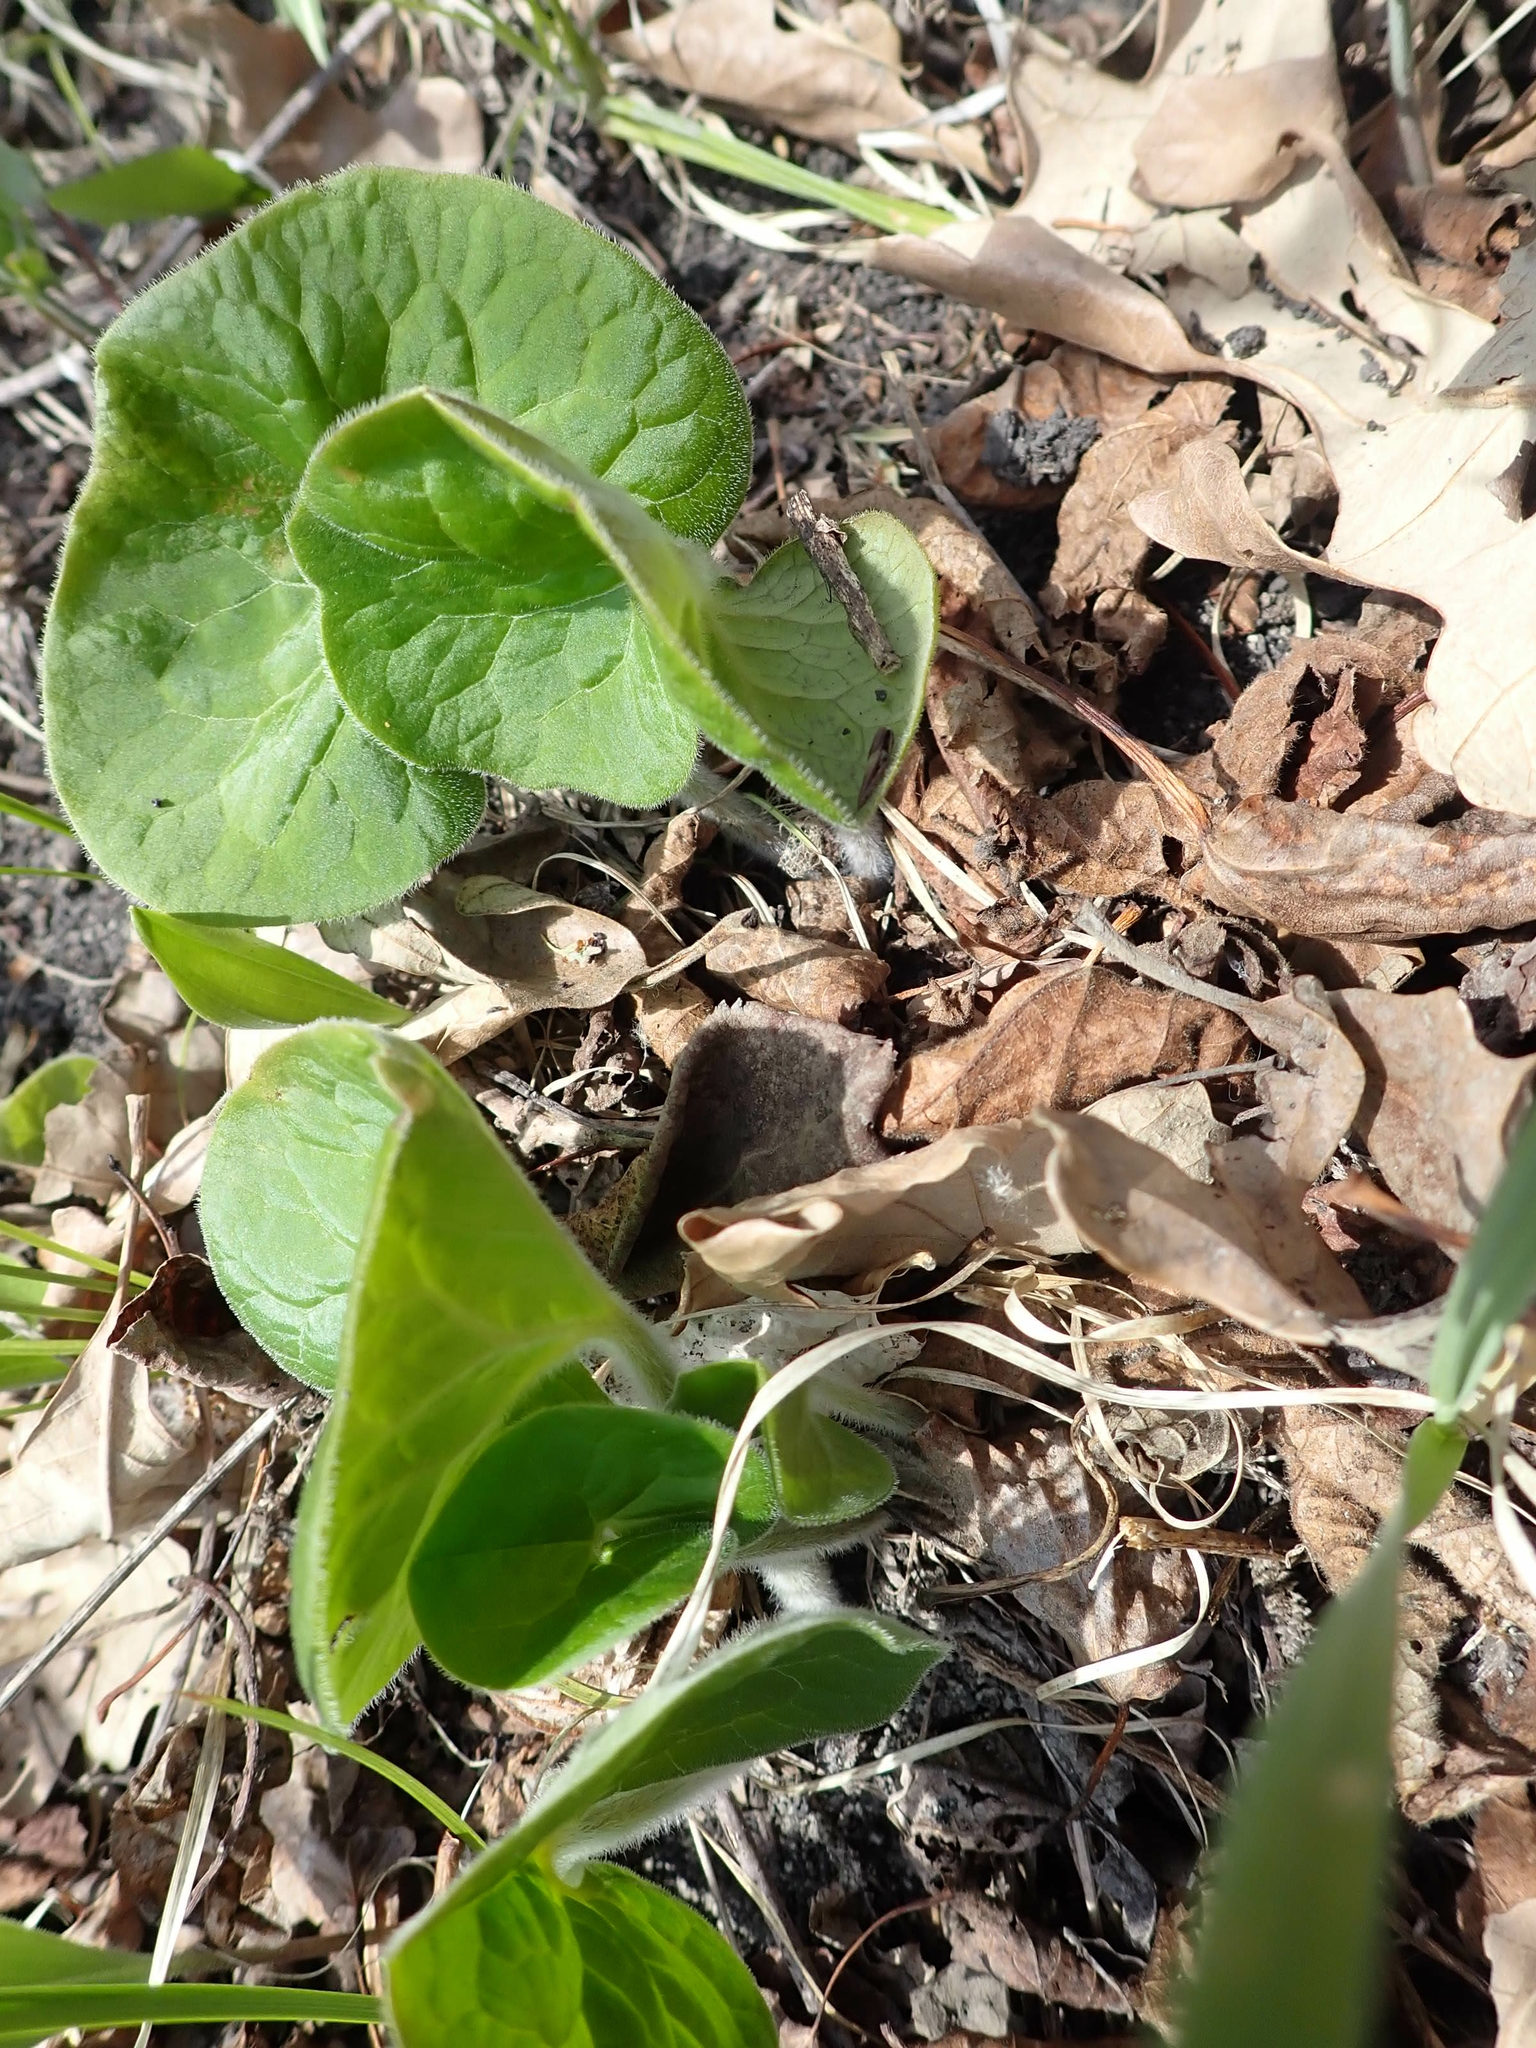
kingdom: Plantae
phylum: Tracheophyta
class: Magnoliopsida
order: Piperales
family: Aristolochiaceae
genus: Asarum
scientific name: Asarum canadense
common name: Wild ginger
